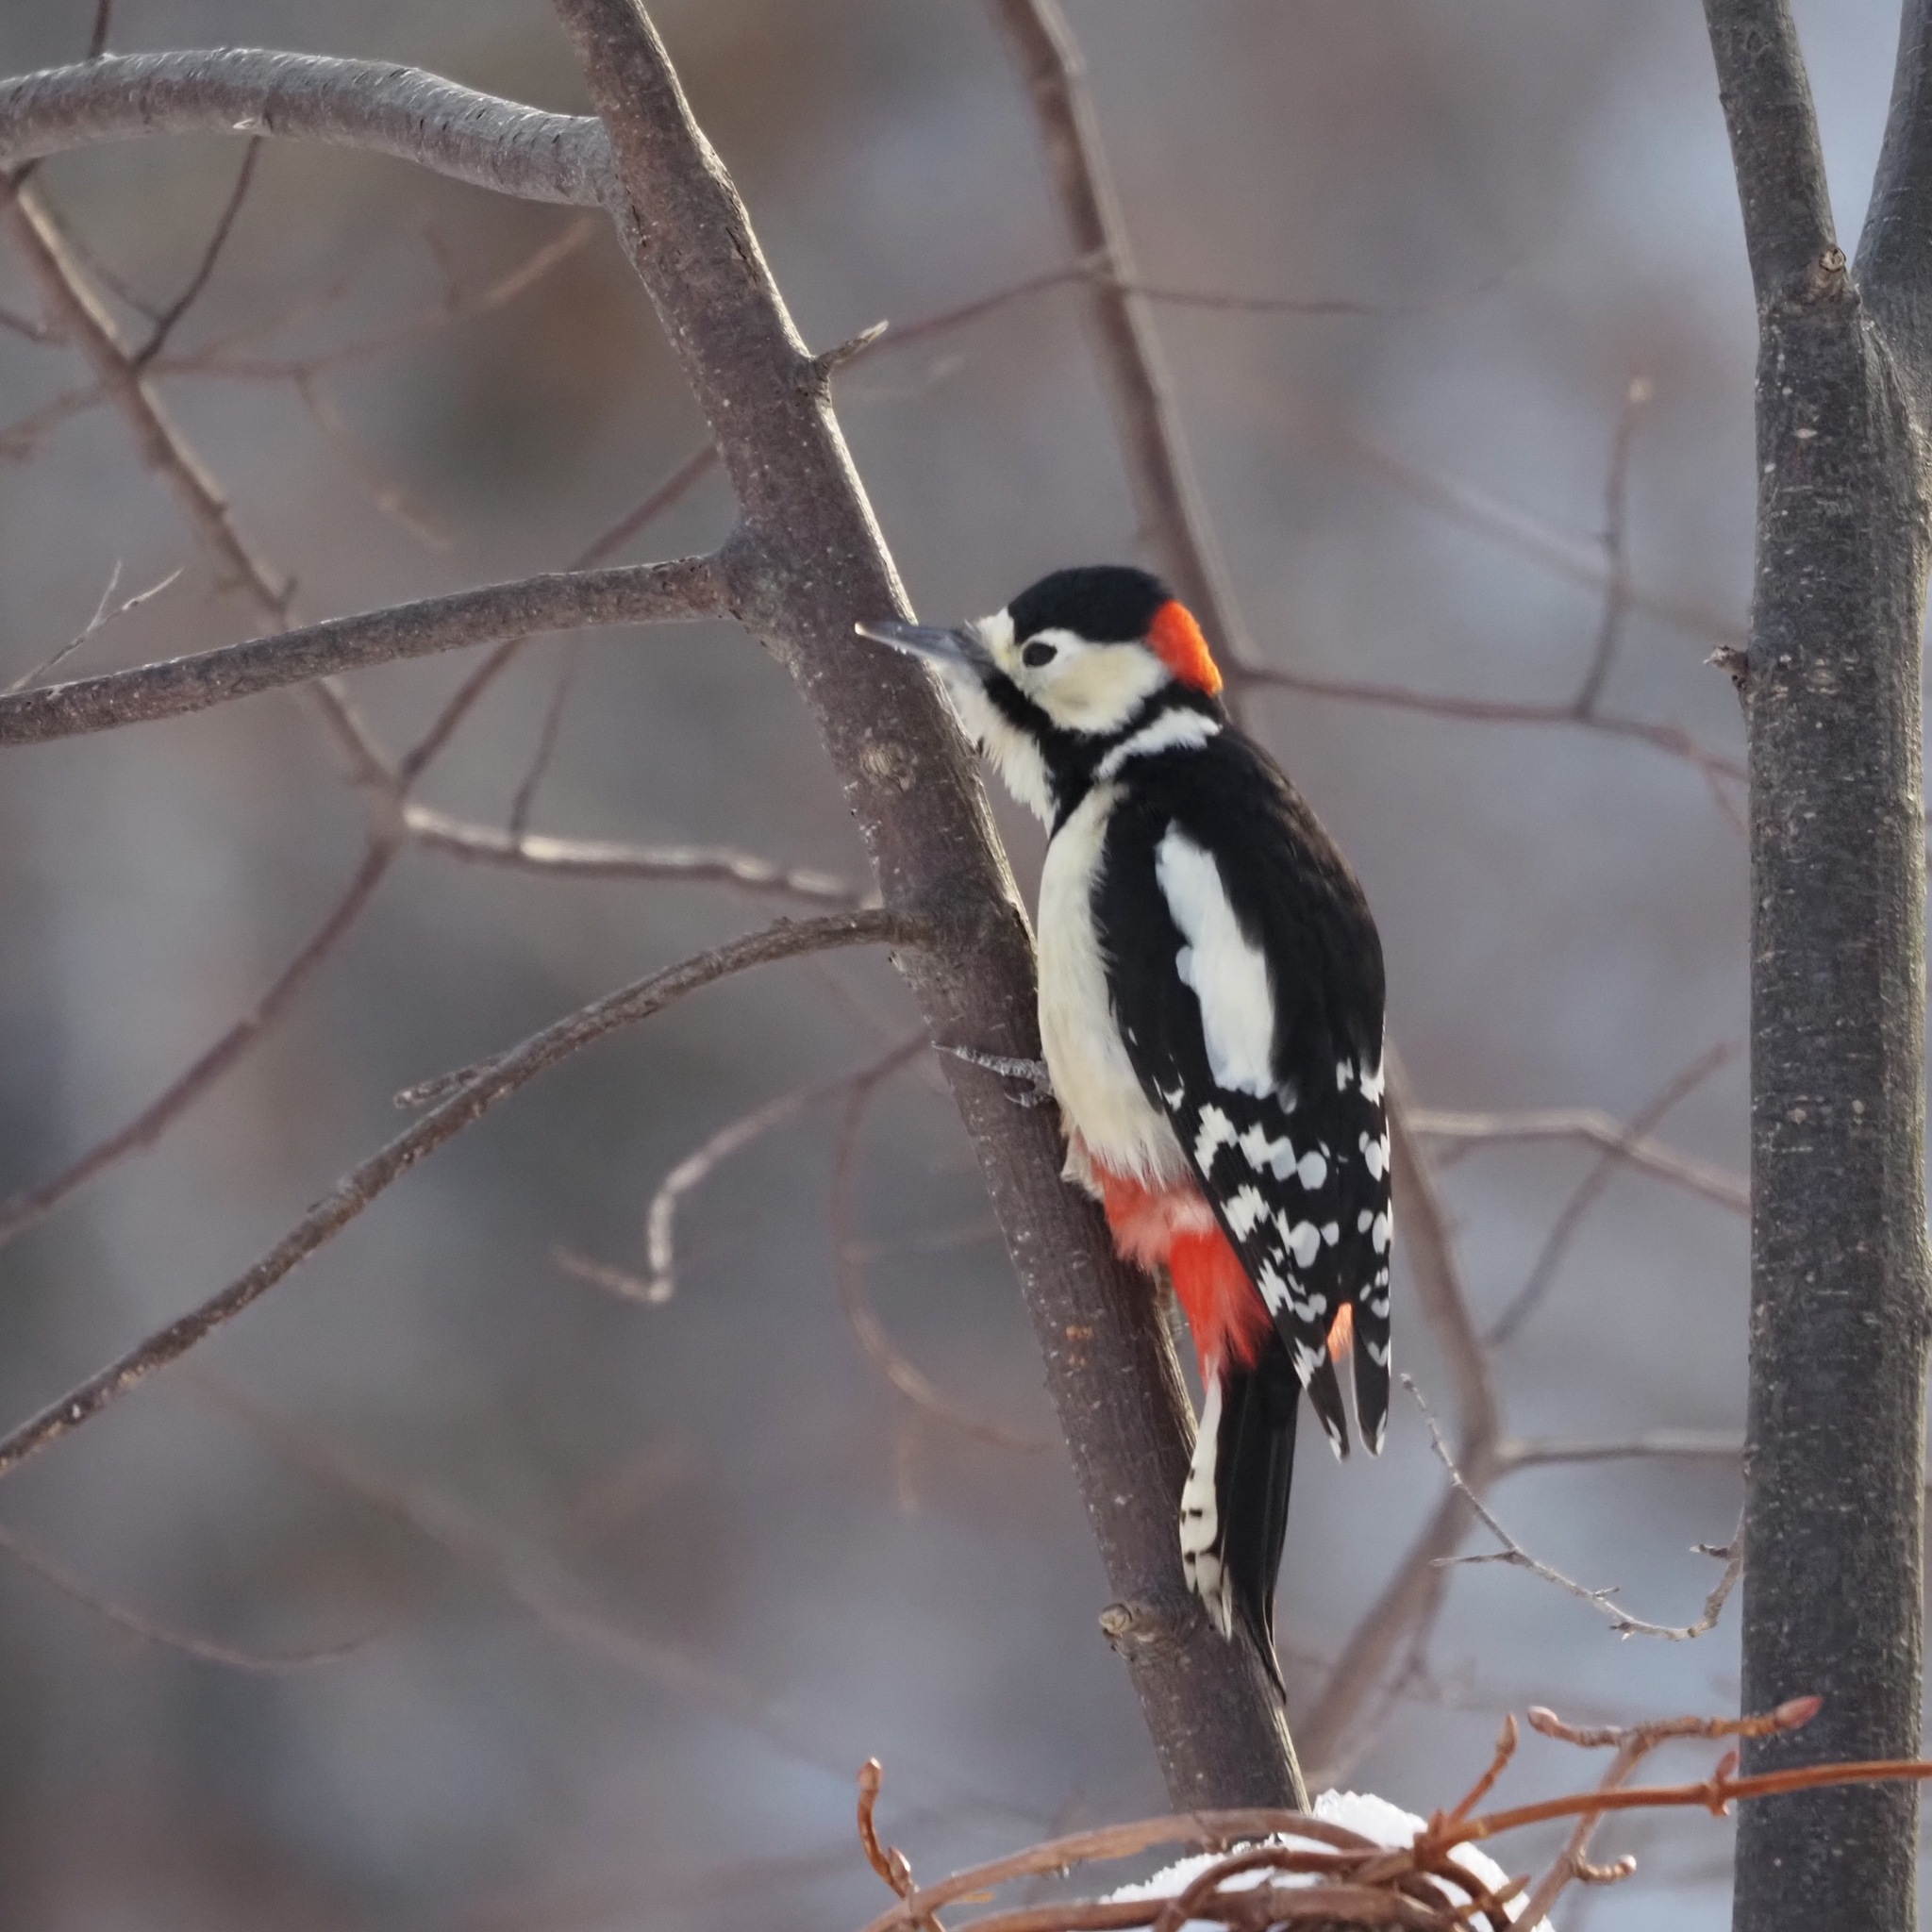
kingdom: Animalia
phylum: Chordata
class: Aves
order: Piciformes
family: Picidae
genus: Dendrocopos
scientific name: Dendrocopos major
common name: Great spotted woodpecker
